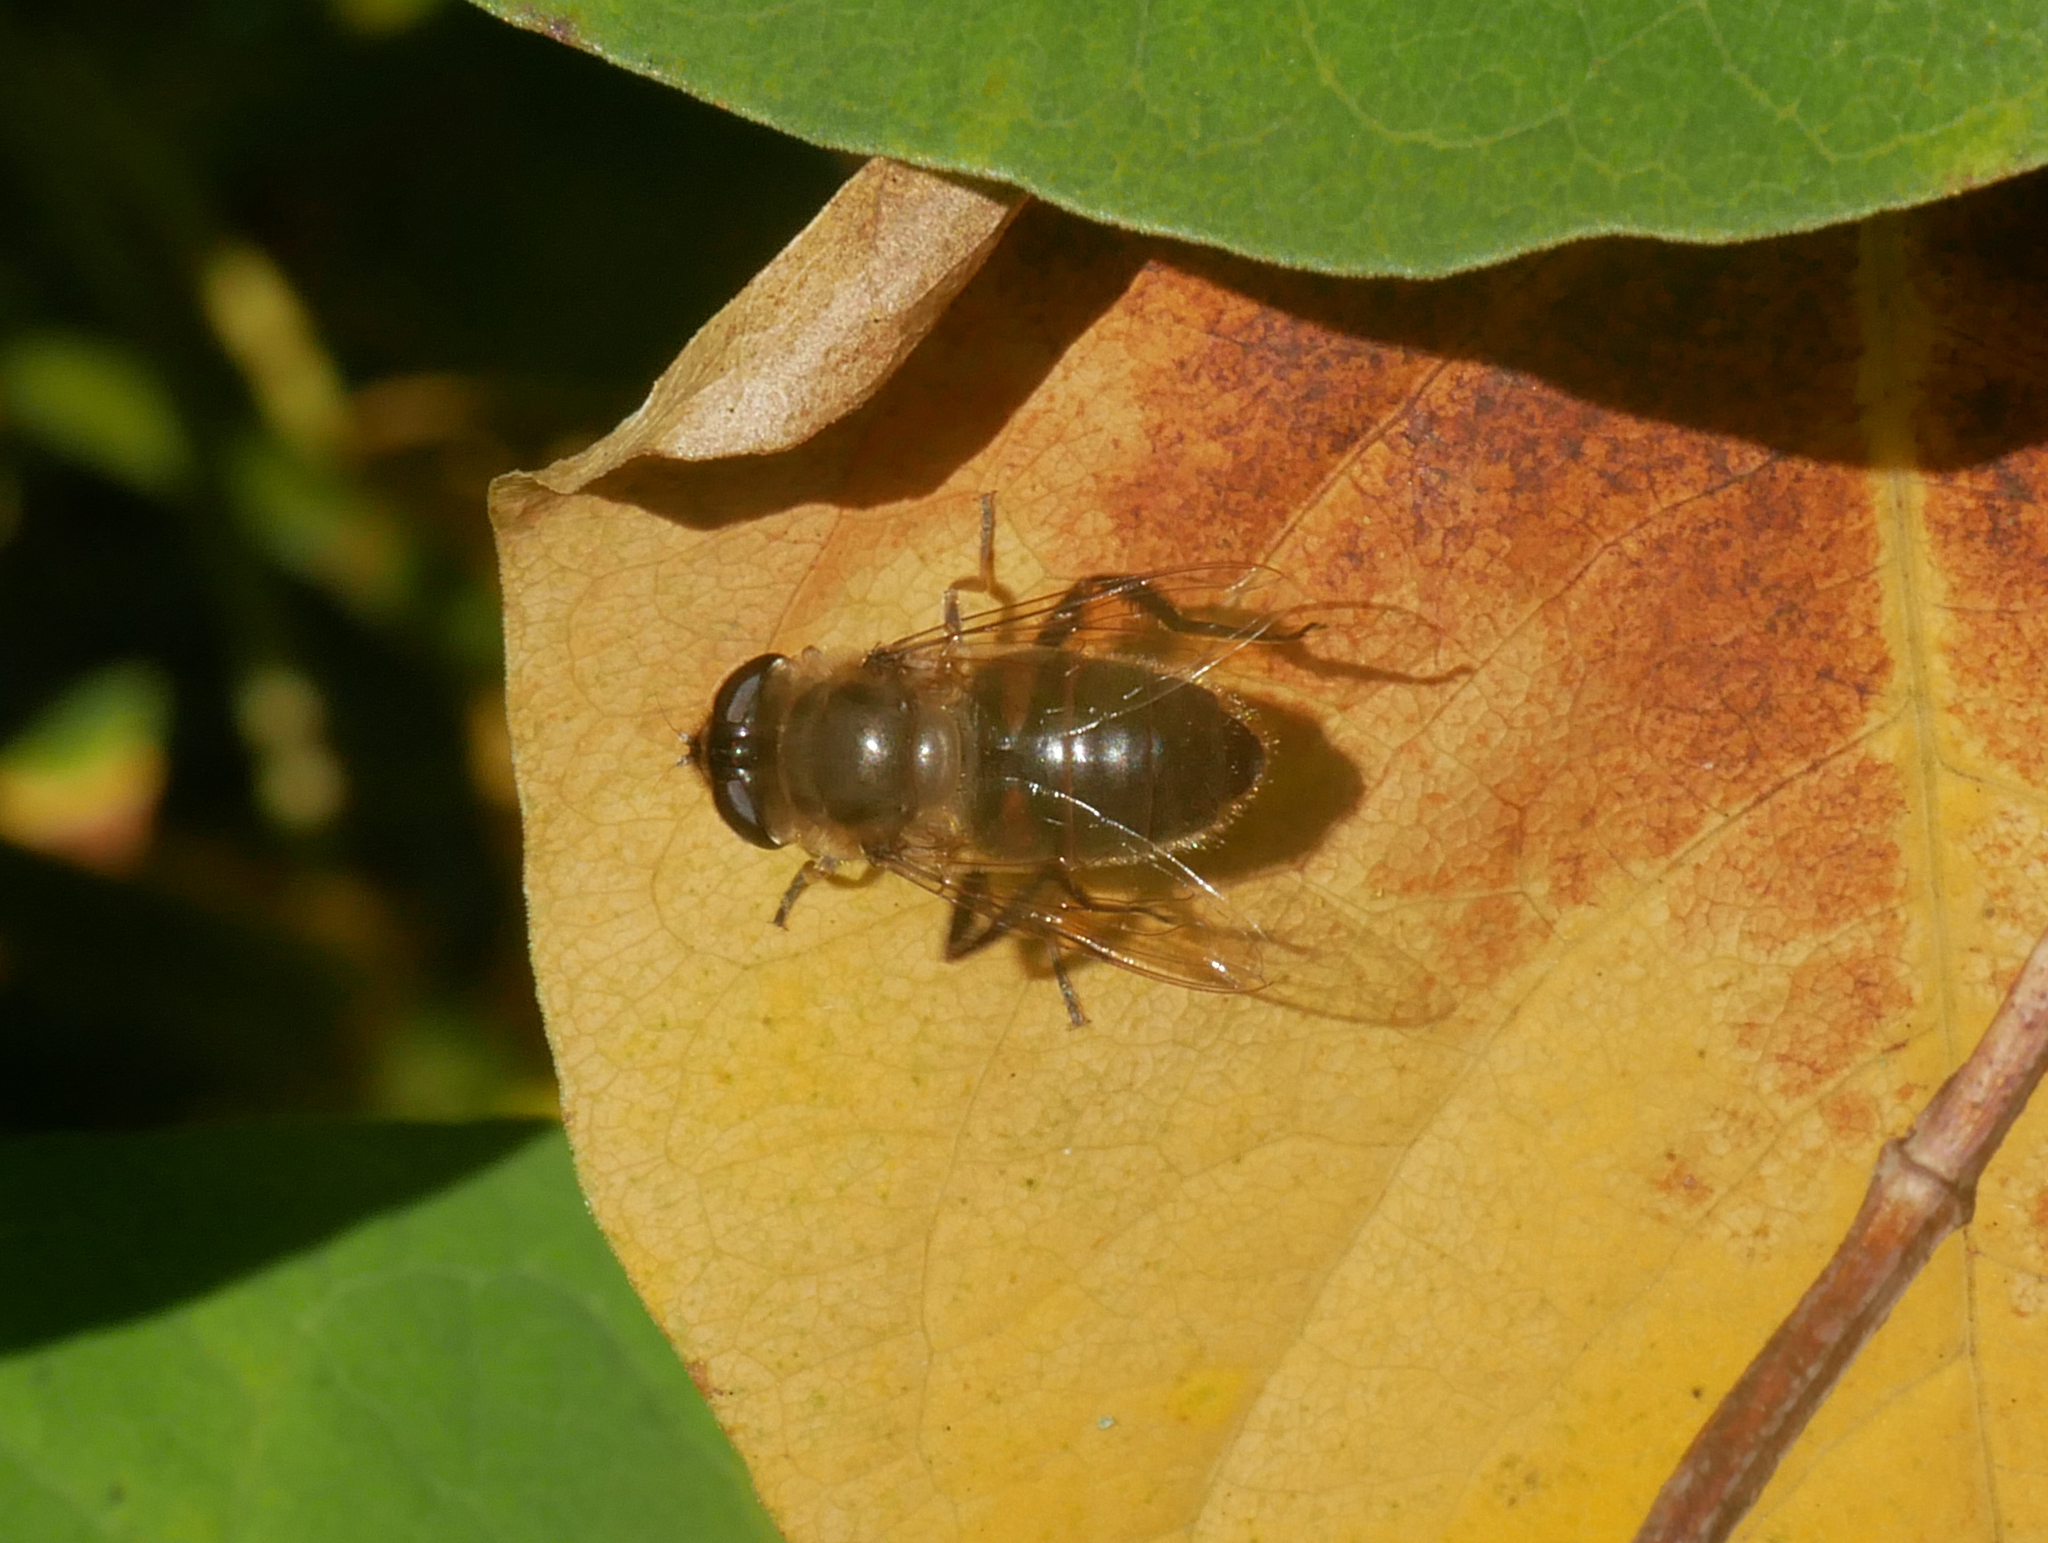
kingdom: Animalia
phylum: Arthropoda
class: Insecta
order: Diptera
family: Syrphidae
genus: Eristalis
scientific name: Eristalis tenax
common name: Drone fly
